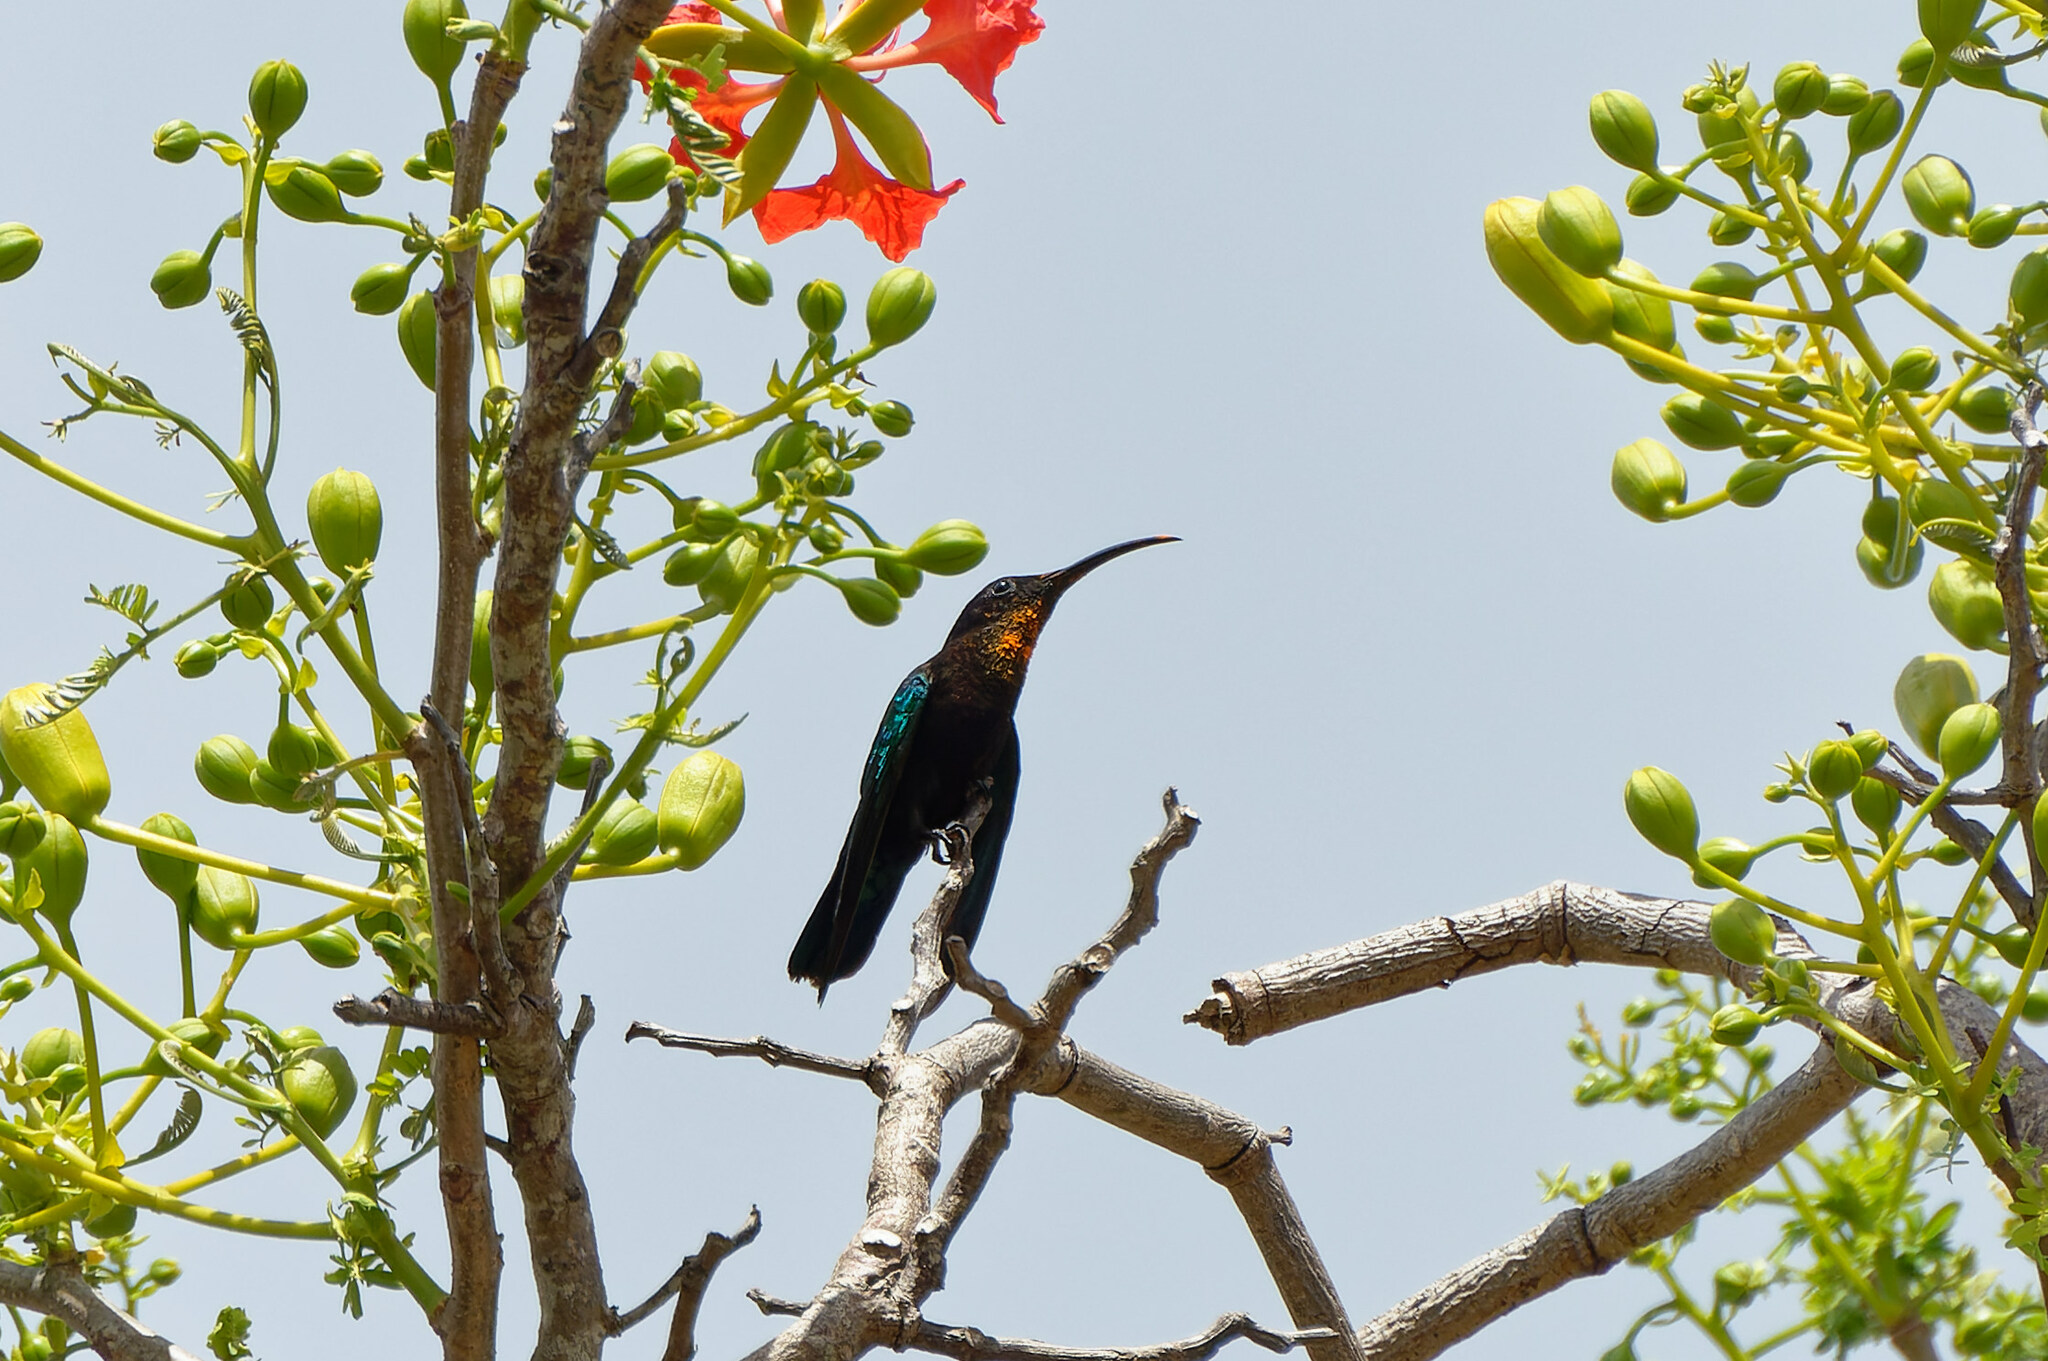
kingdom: Animalia
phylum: Chordata
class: Aves
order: Apodiformes
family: Trochilidae
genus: Eulampis
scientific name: Eulampis jugularis
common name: Purple-throated carib
